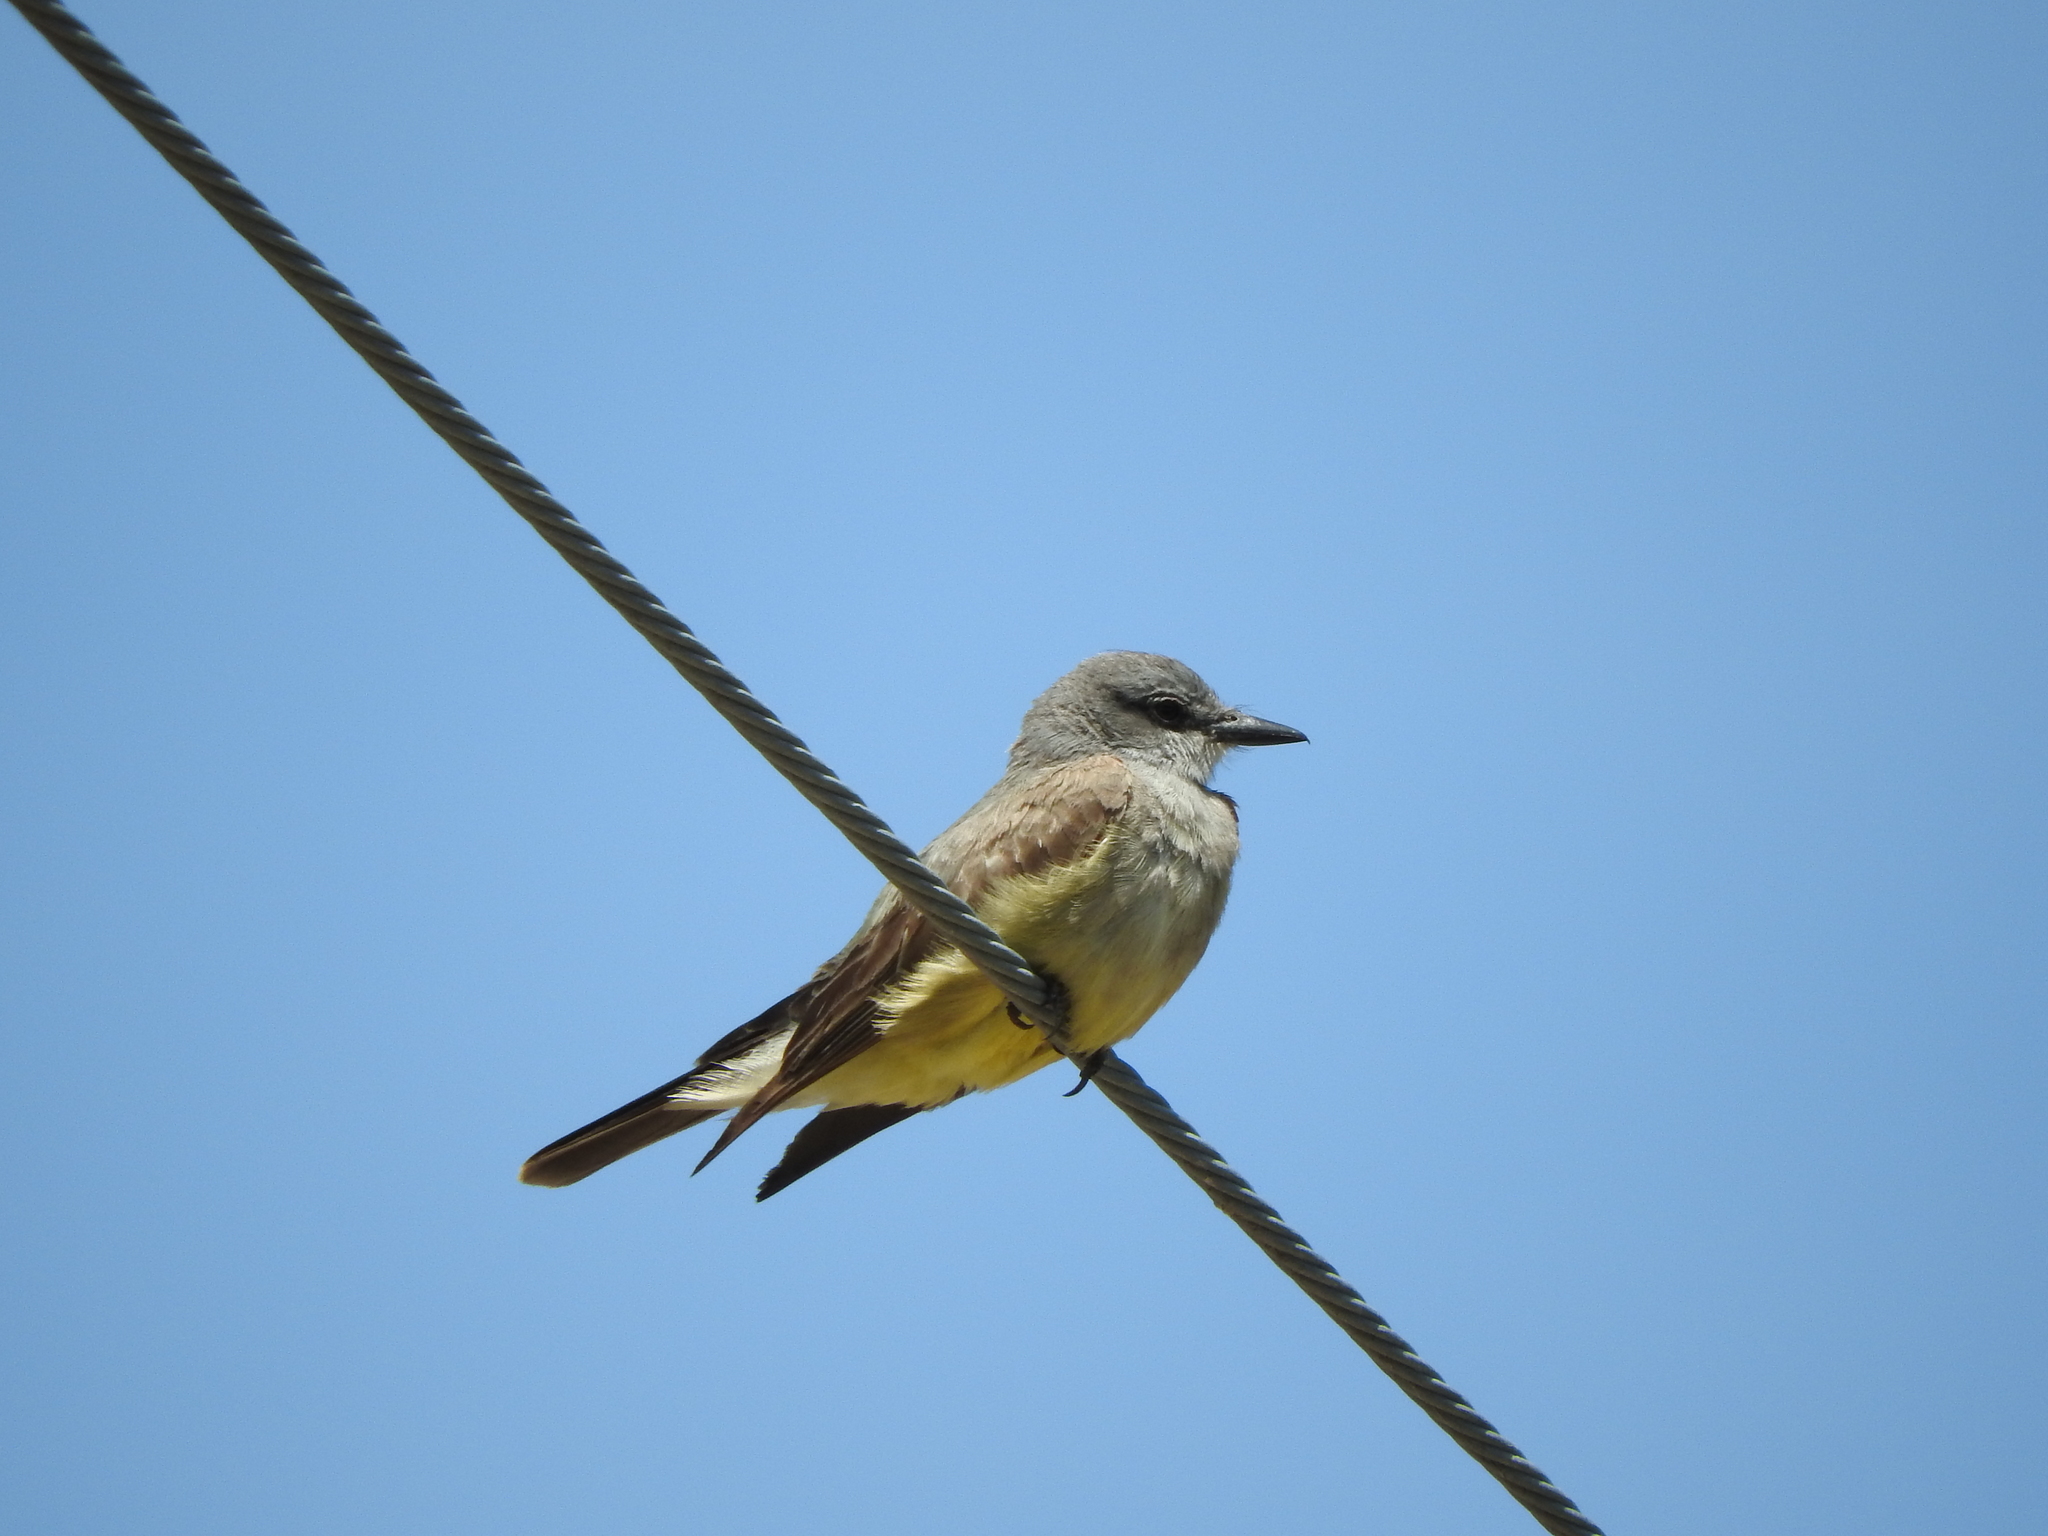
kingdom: Animalia
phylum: Chordata
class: Aves
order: Passeriformes
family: Tyrannidae
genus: Tyrannus
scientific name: Tyrannus vociferans
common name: Cassin's kingbird
